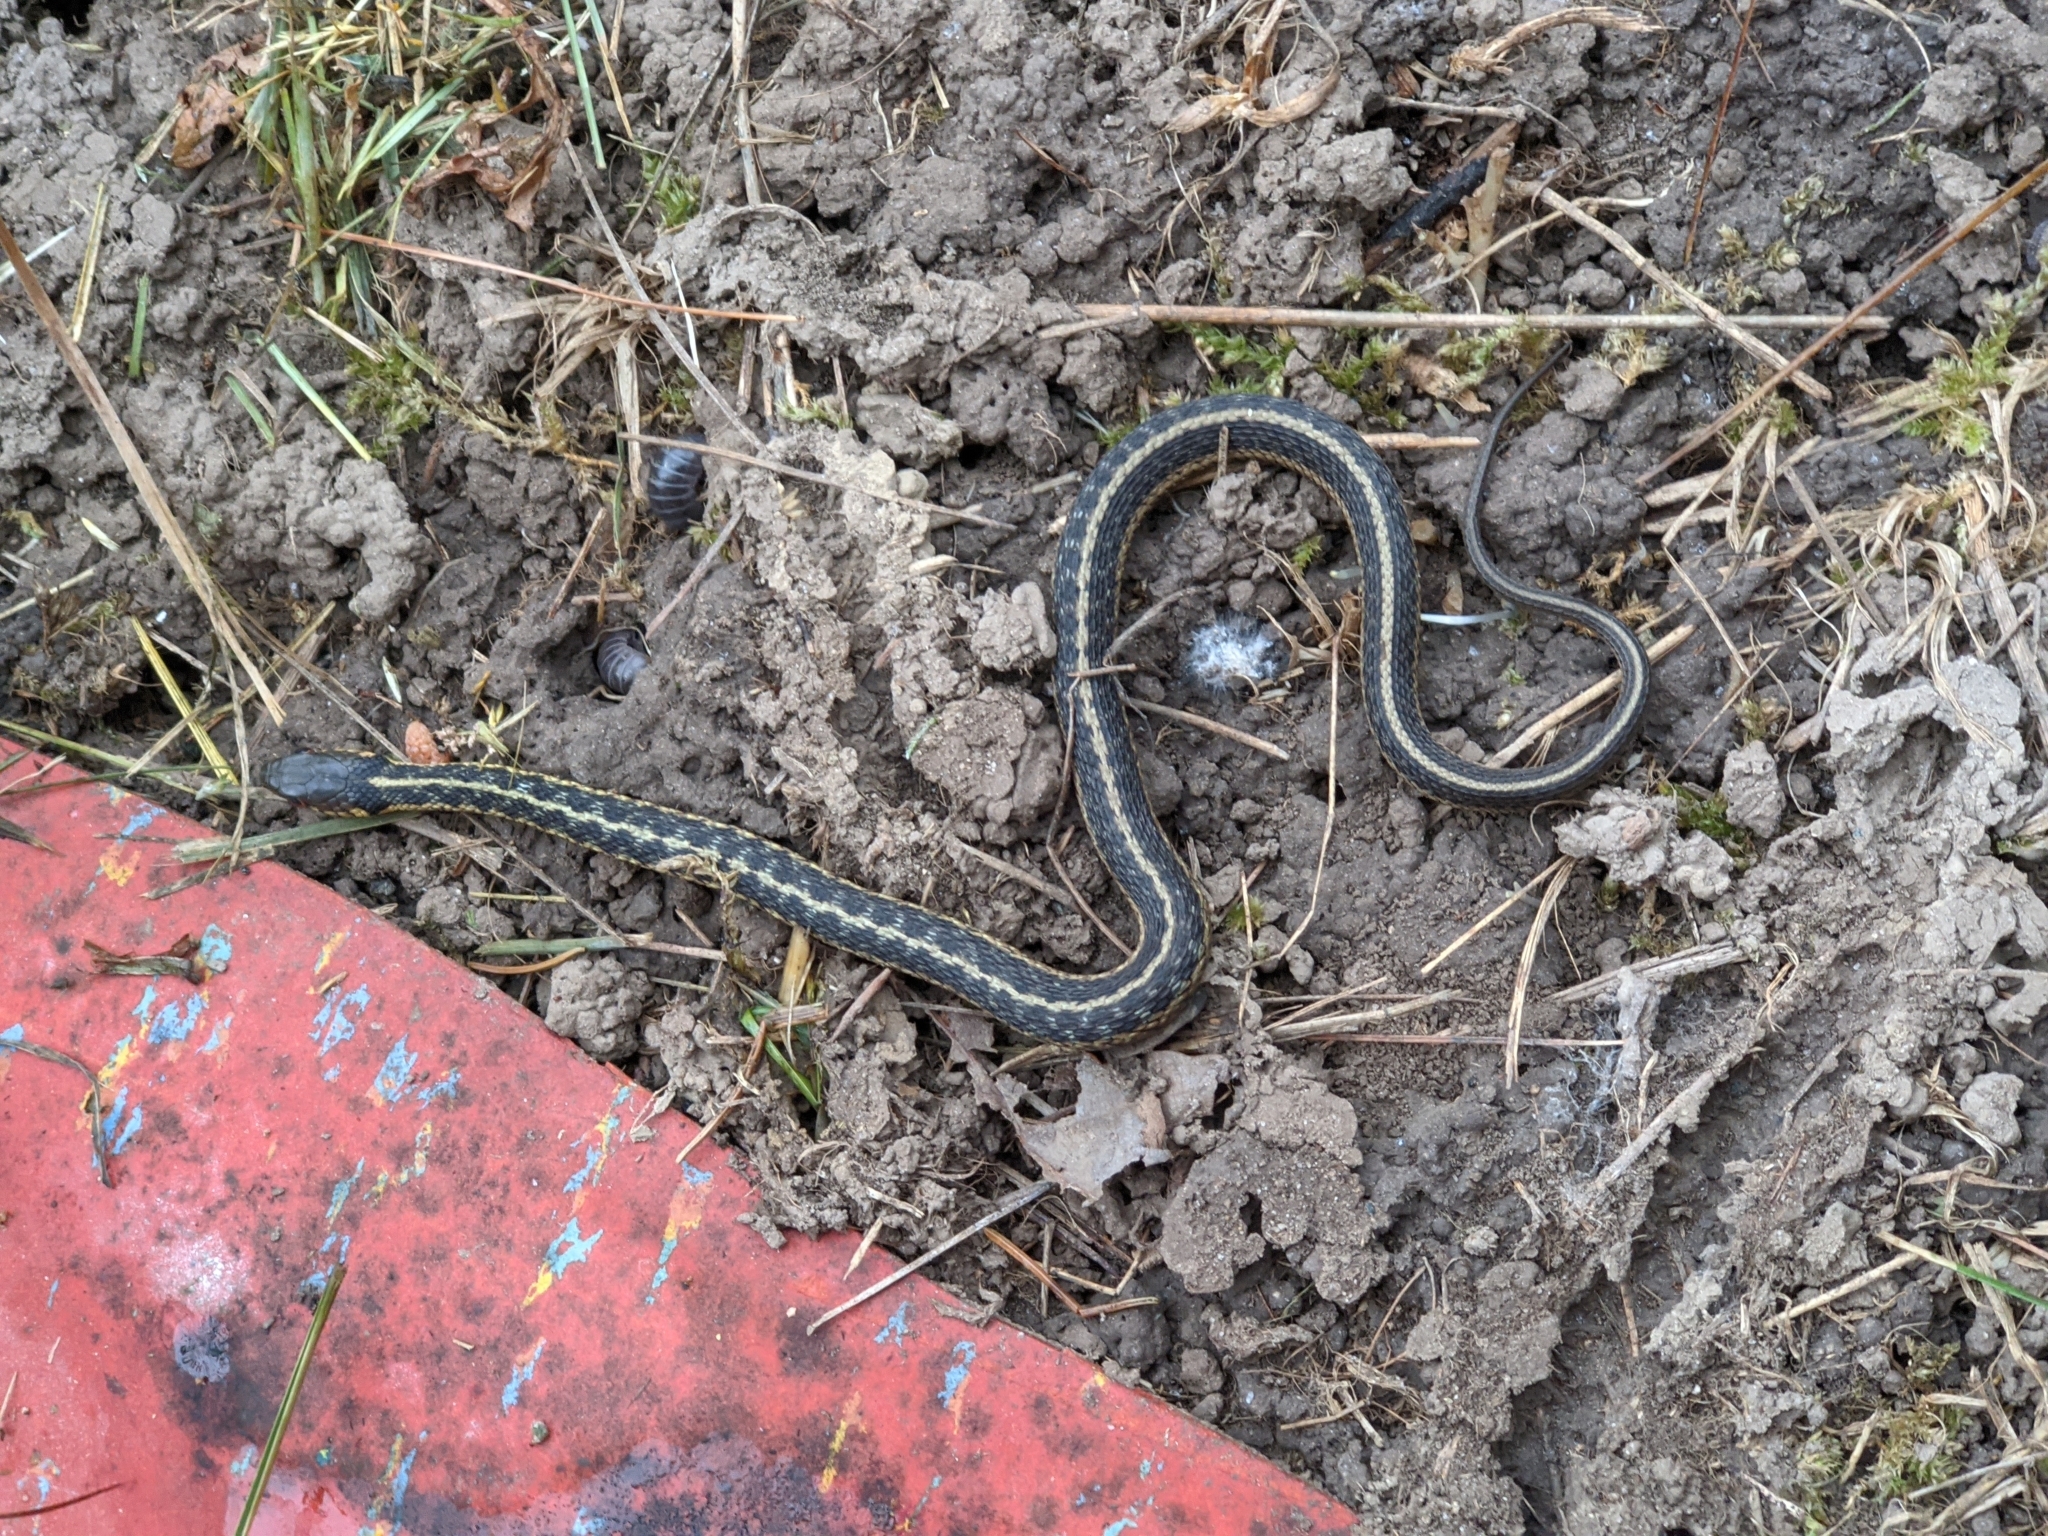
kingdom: Animalia
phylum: Chordata
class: Squamata
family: Colubridae
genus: Thamnophis
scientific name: Thamnophis sirtalis
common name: Common garter snake
